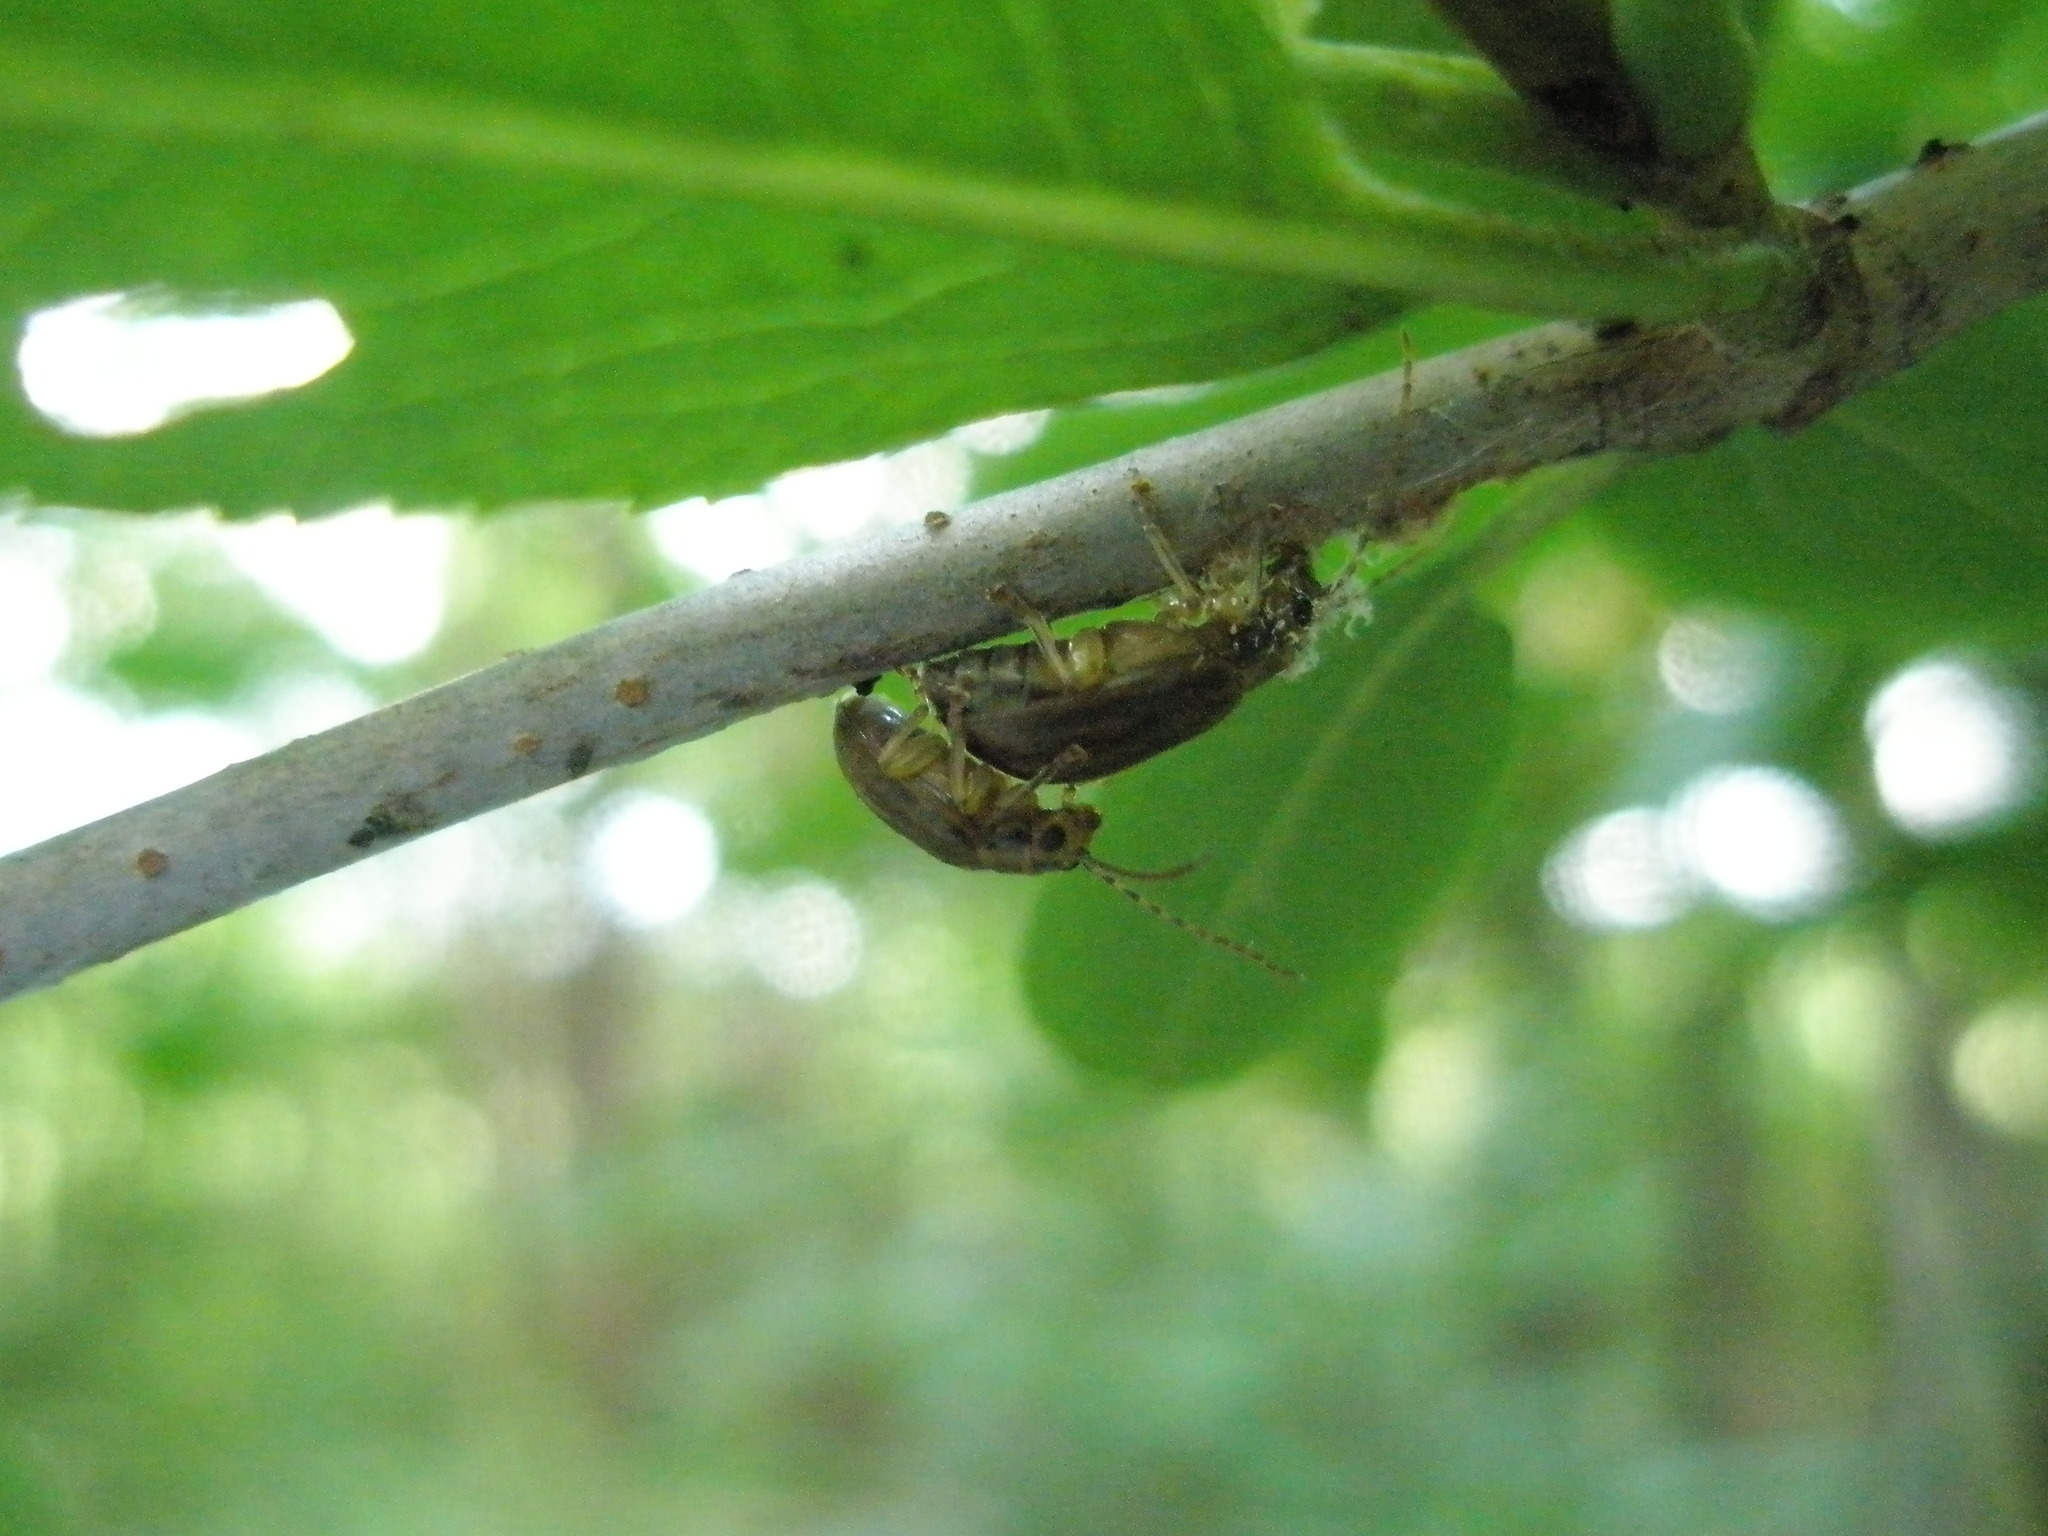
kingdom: Animalia
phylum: Arthropoda
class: Insecta
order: Coleoptera
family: Chrysomelidae
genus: Pyrrhalta
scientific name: Pyrrhalta viburni
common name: Guelder-rose leaf beetle
